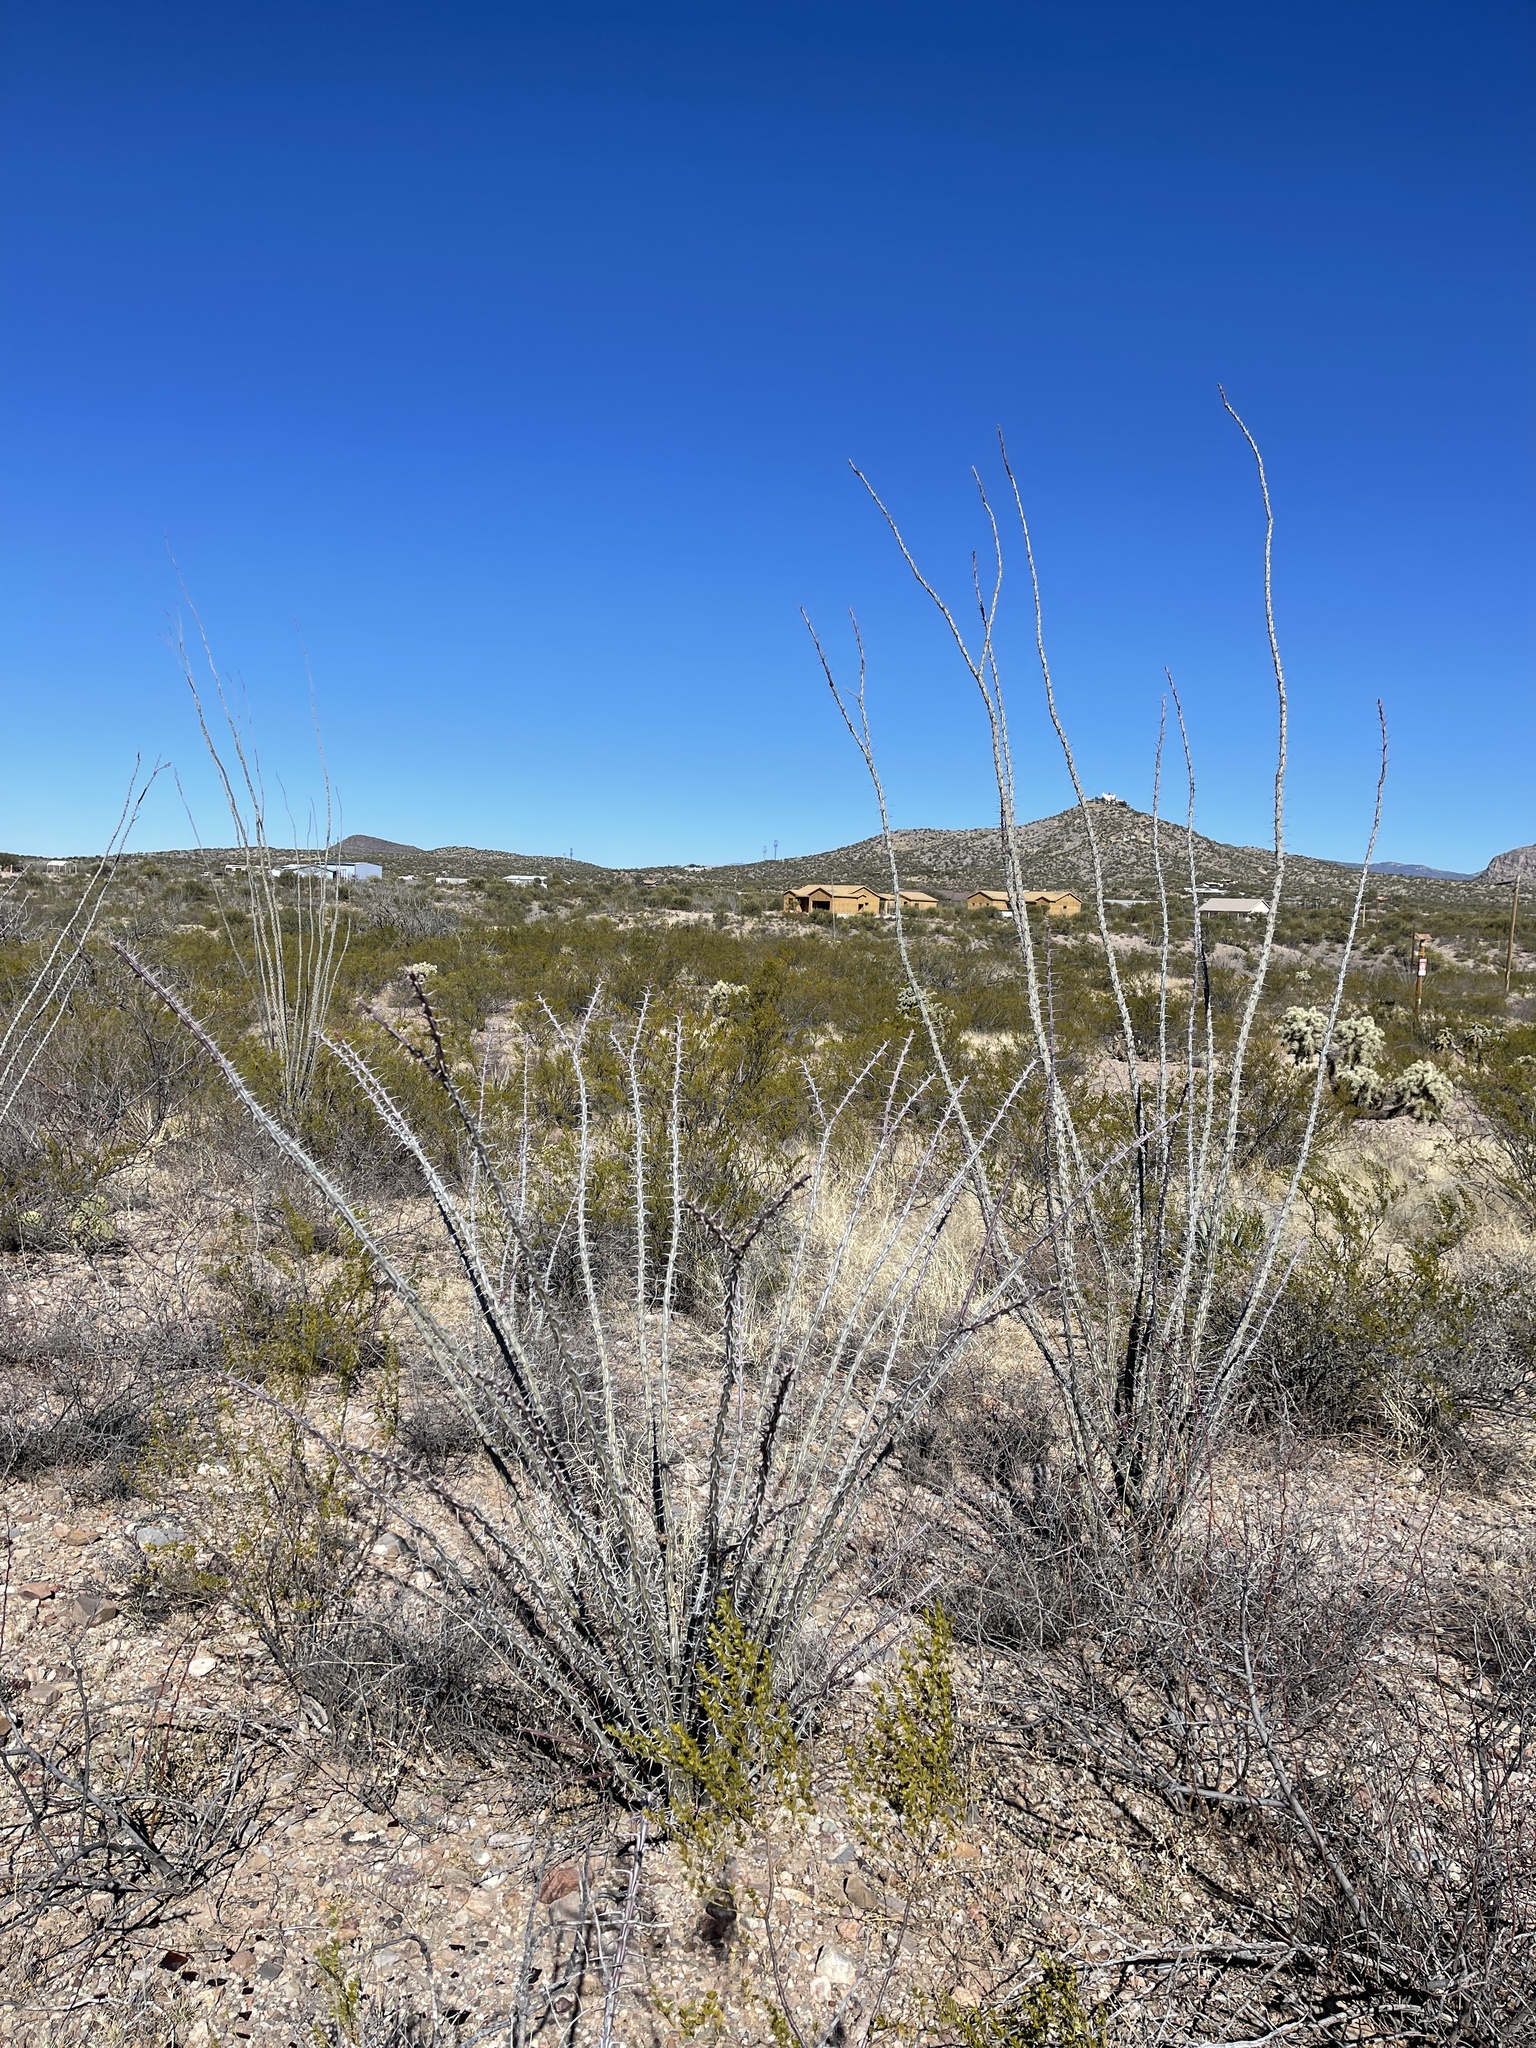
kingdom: Plantae
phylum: Tracheophyta
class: Magnoliopsida
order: Ericales
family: Fouquieriaceae
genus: Fouquieria
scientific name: Fouquieria splendens
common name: Vine-cactus
